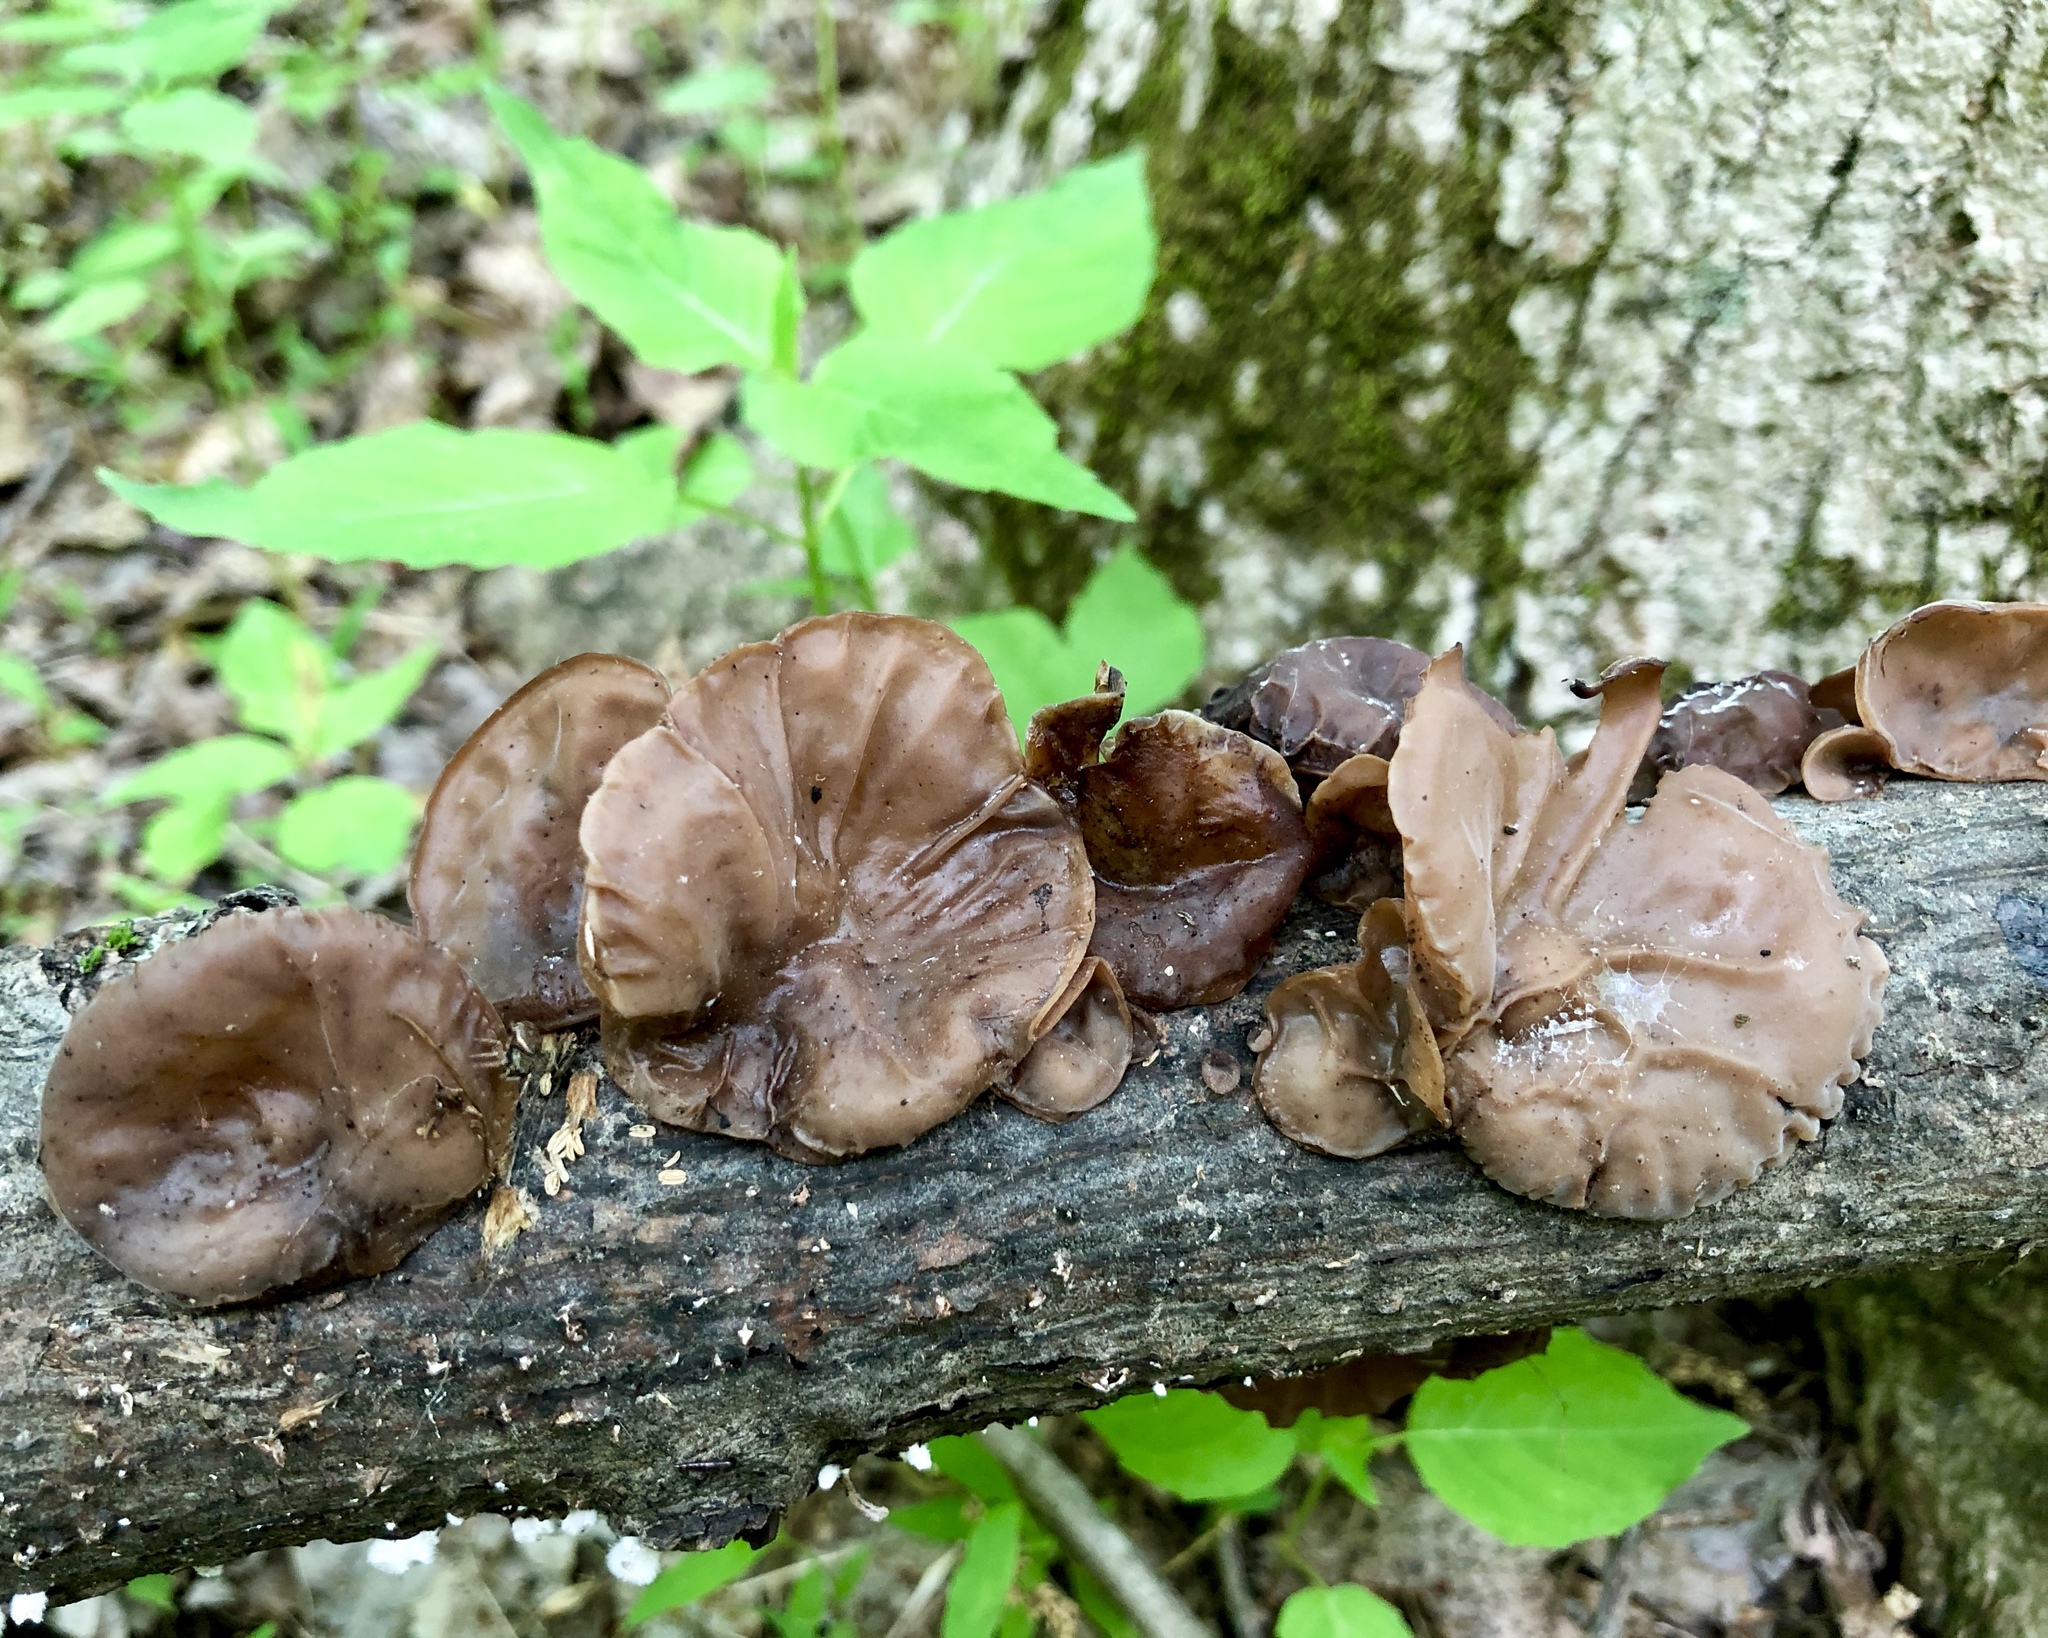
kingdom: Fungi
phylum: Basidiomycota
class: Agaricomycetes
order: Auriculariales
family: Auriculariaceae
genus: Auricularia
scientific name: Auricularia americana
